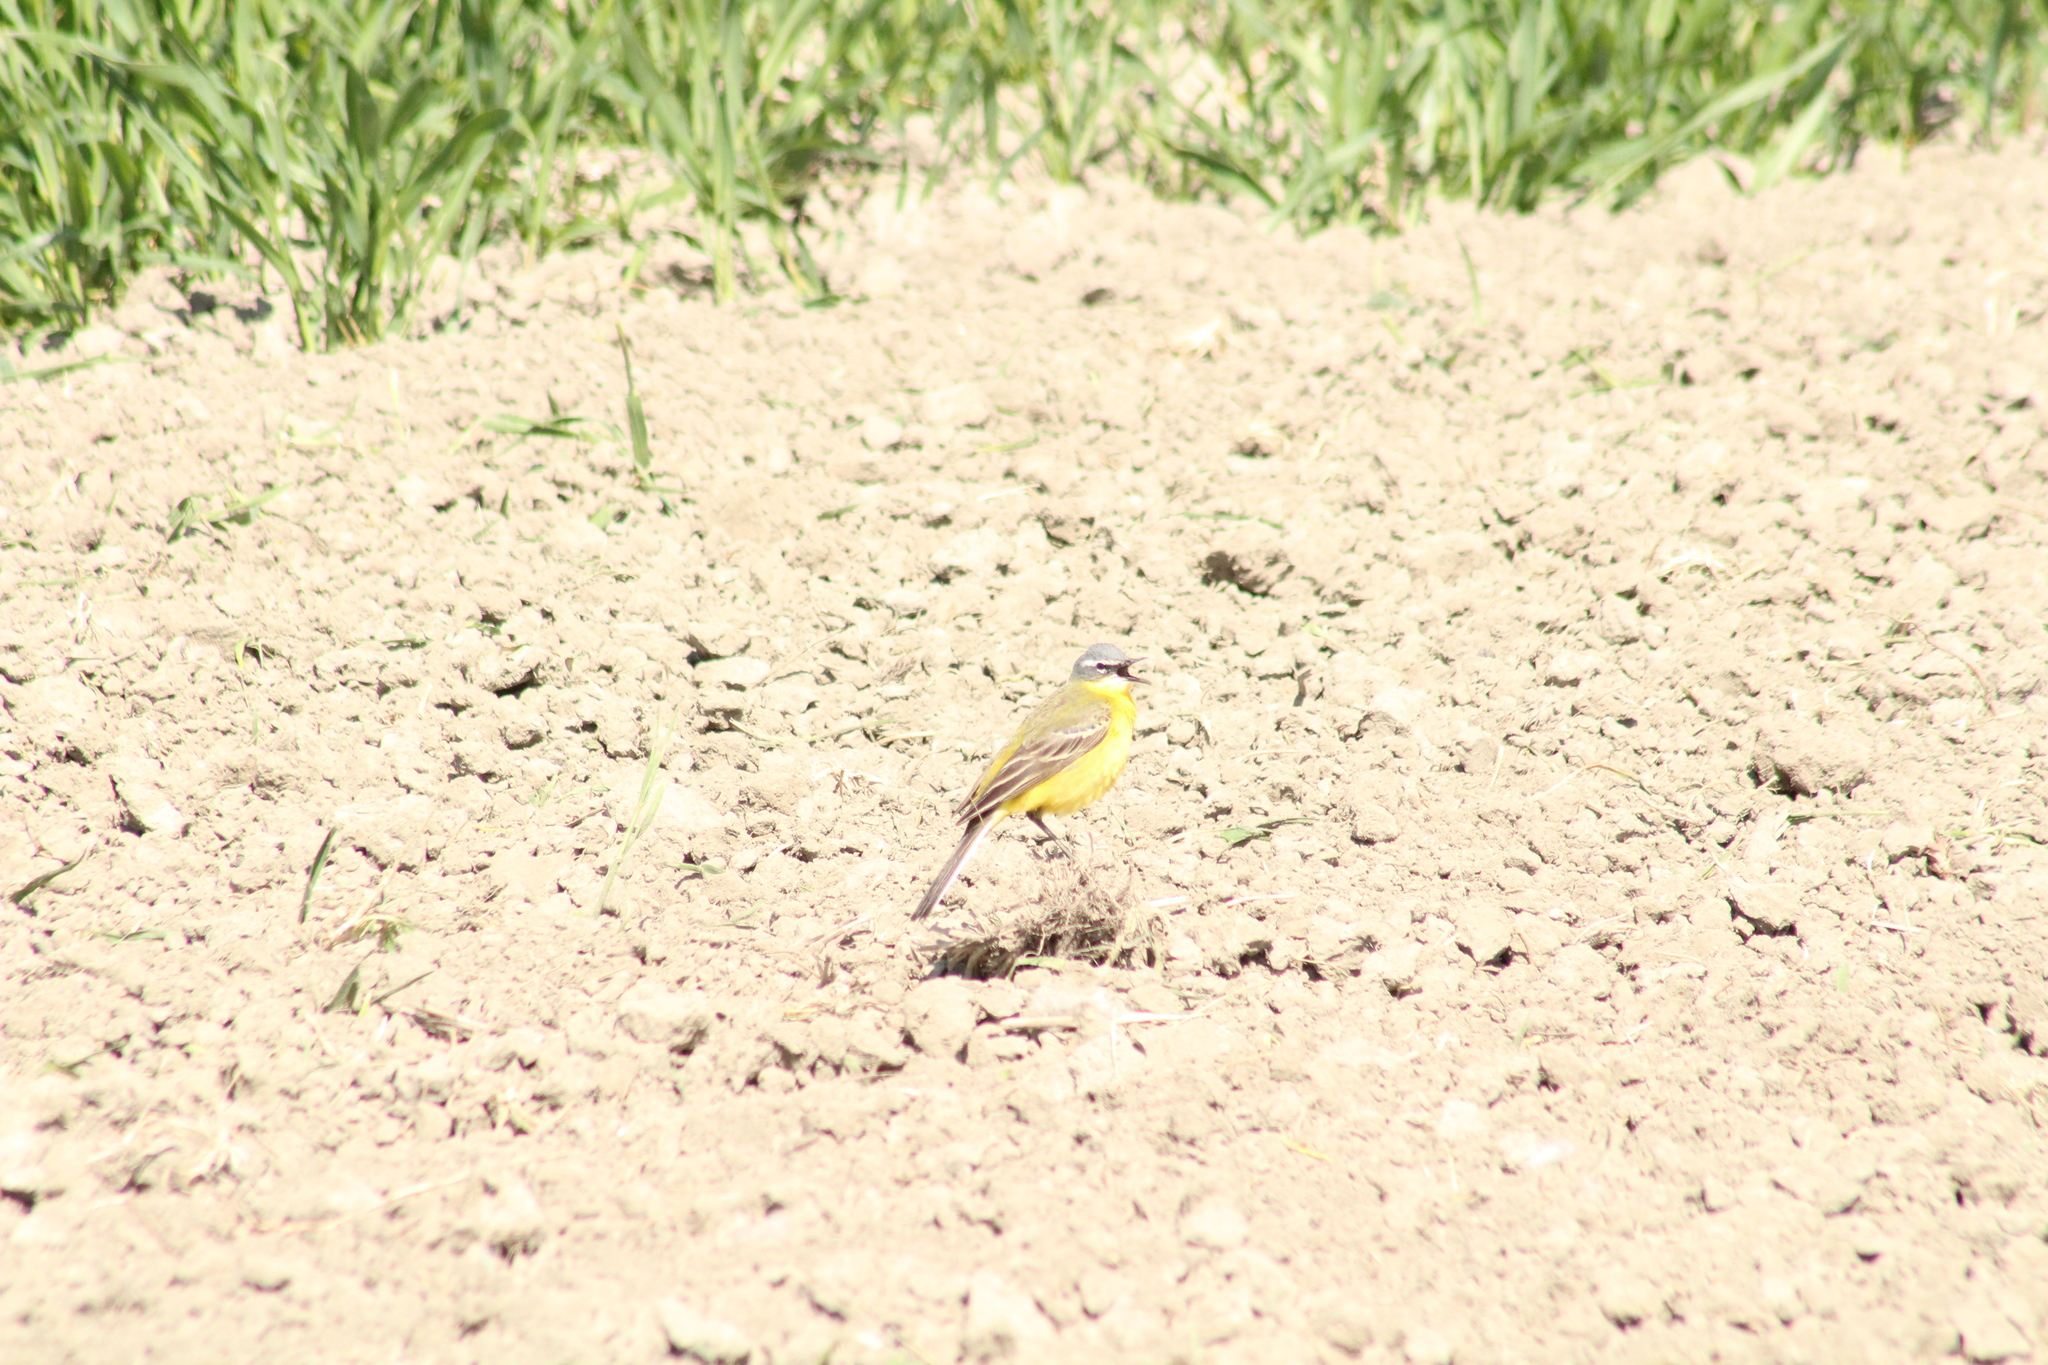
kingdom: Animalia
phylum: Chordata
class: Aves
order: Passeriformes
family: Motacillidae
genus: Motacilla
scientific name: Motacilla flava
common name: Western yellow wagtail
